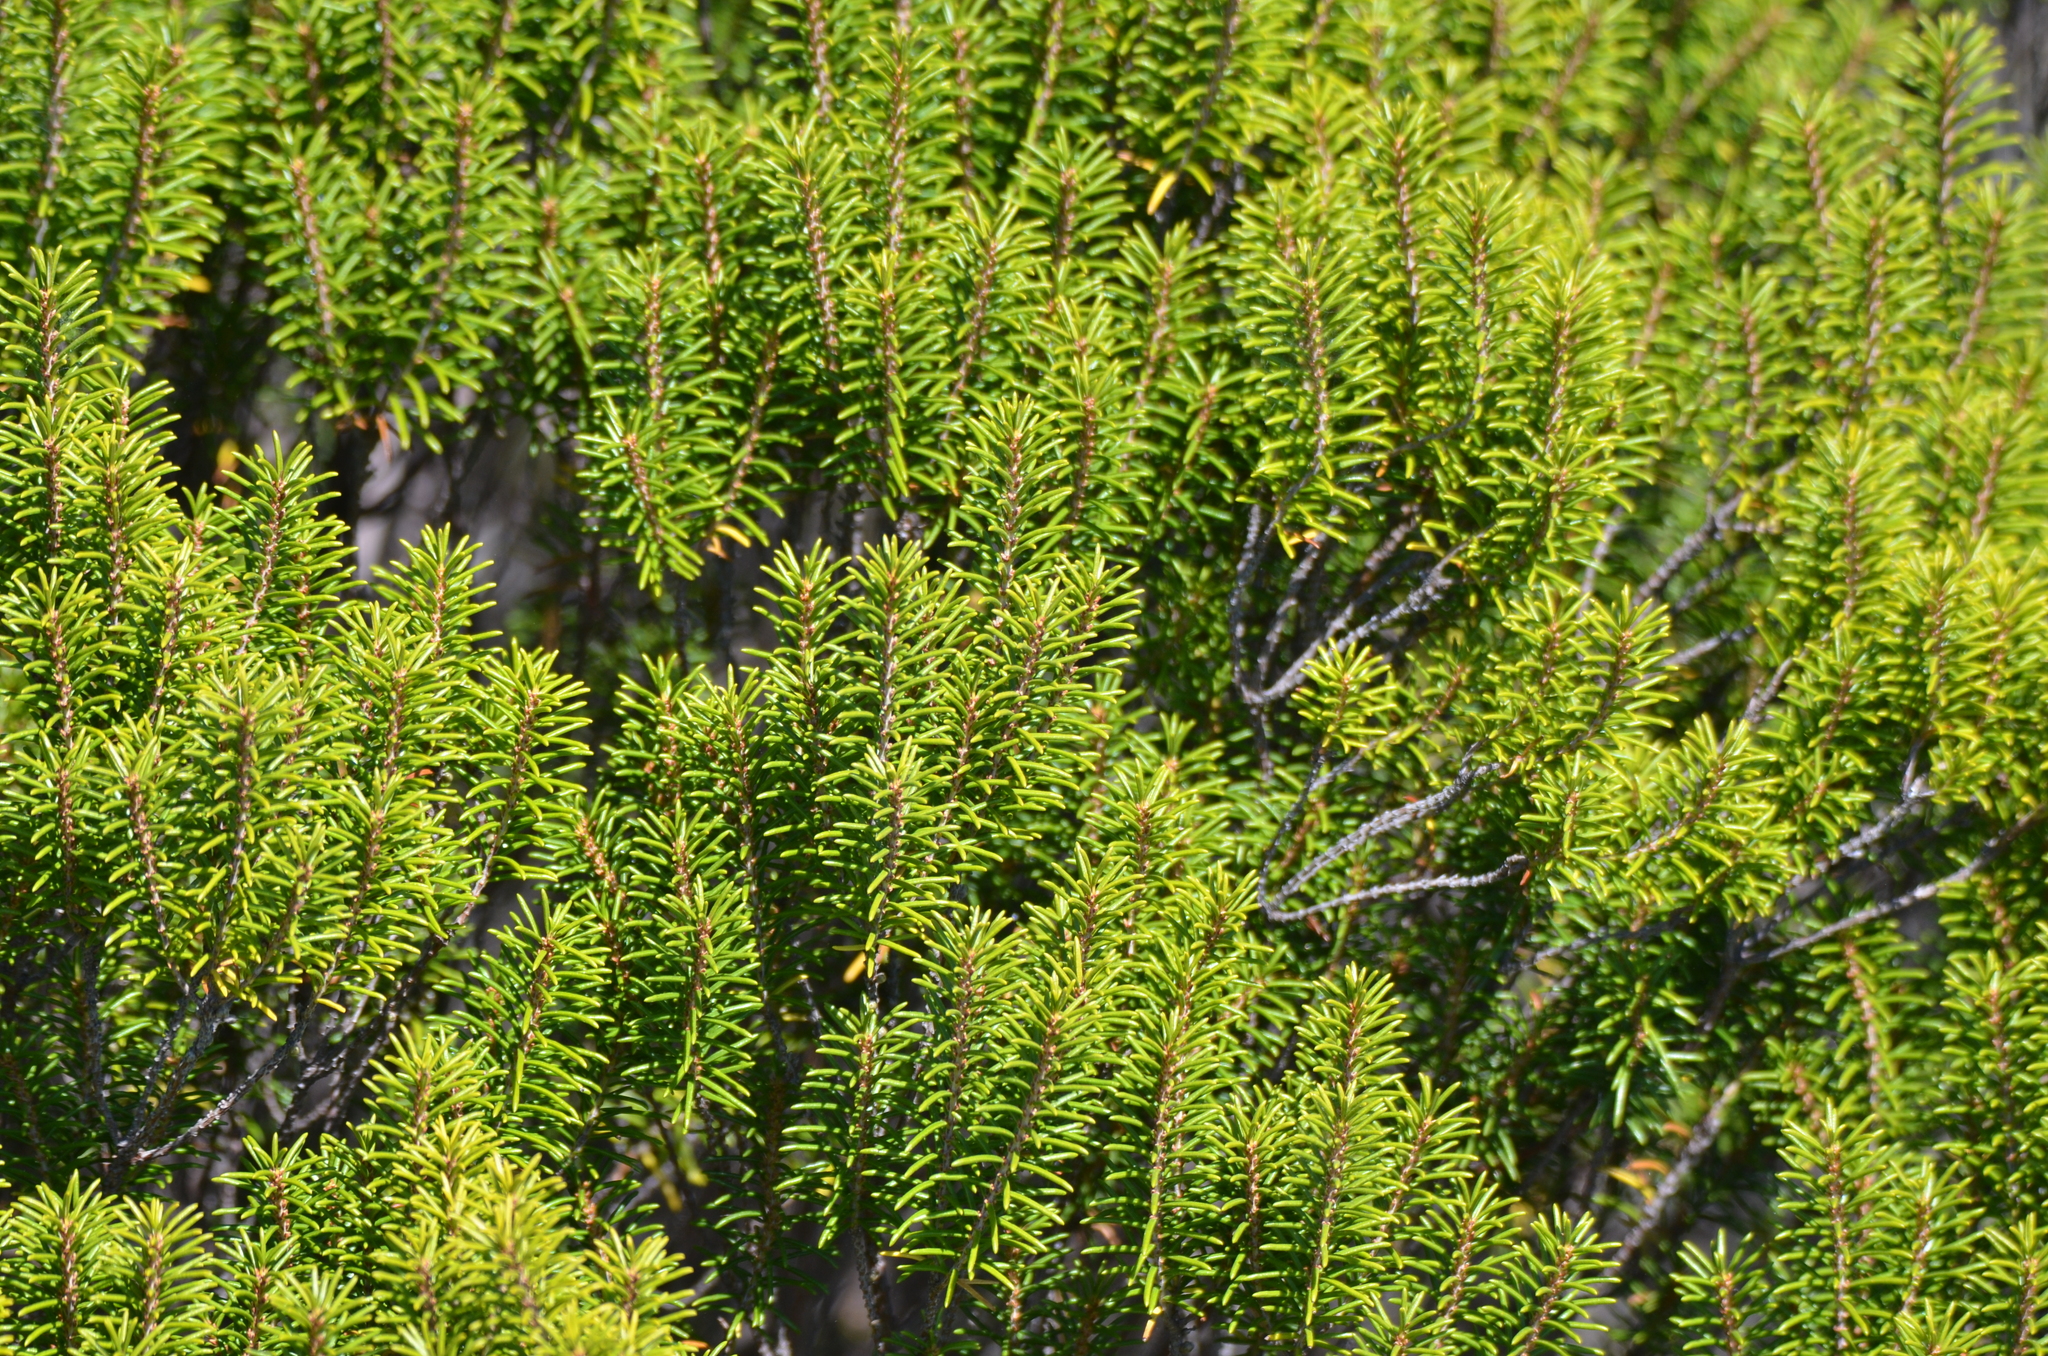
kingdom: Plantae
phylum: Tracheophyta
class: Magnoliopsida
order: Ericales
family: Ericaceae
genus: Ceratiola
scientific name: Ceratiola ericoides
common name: Sandhill-rosemary
